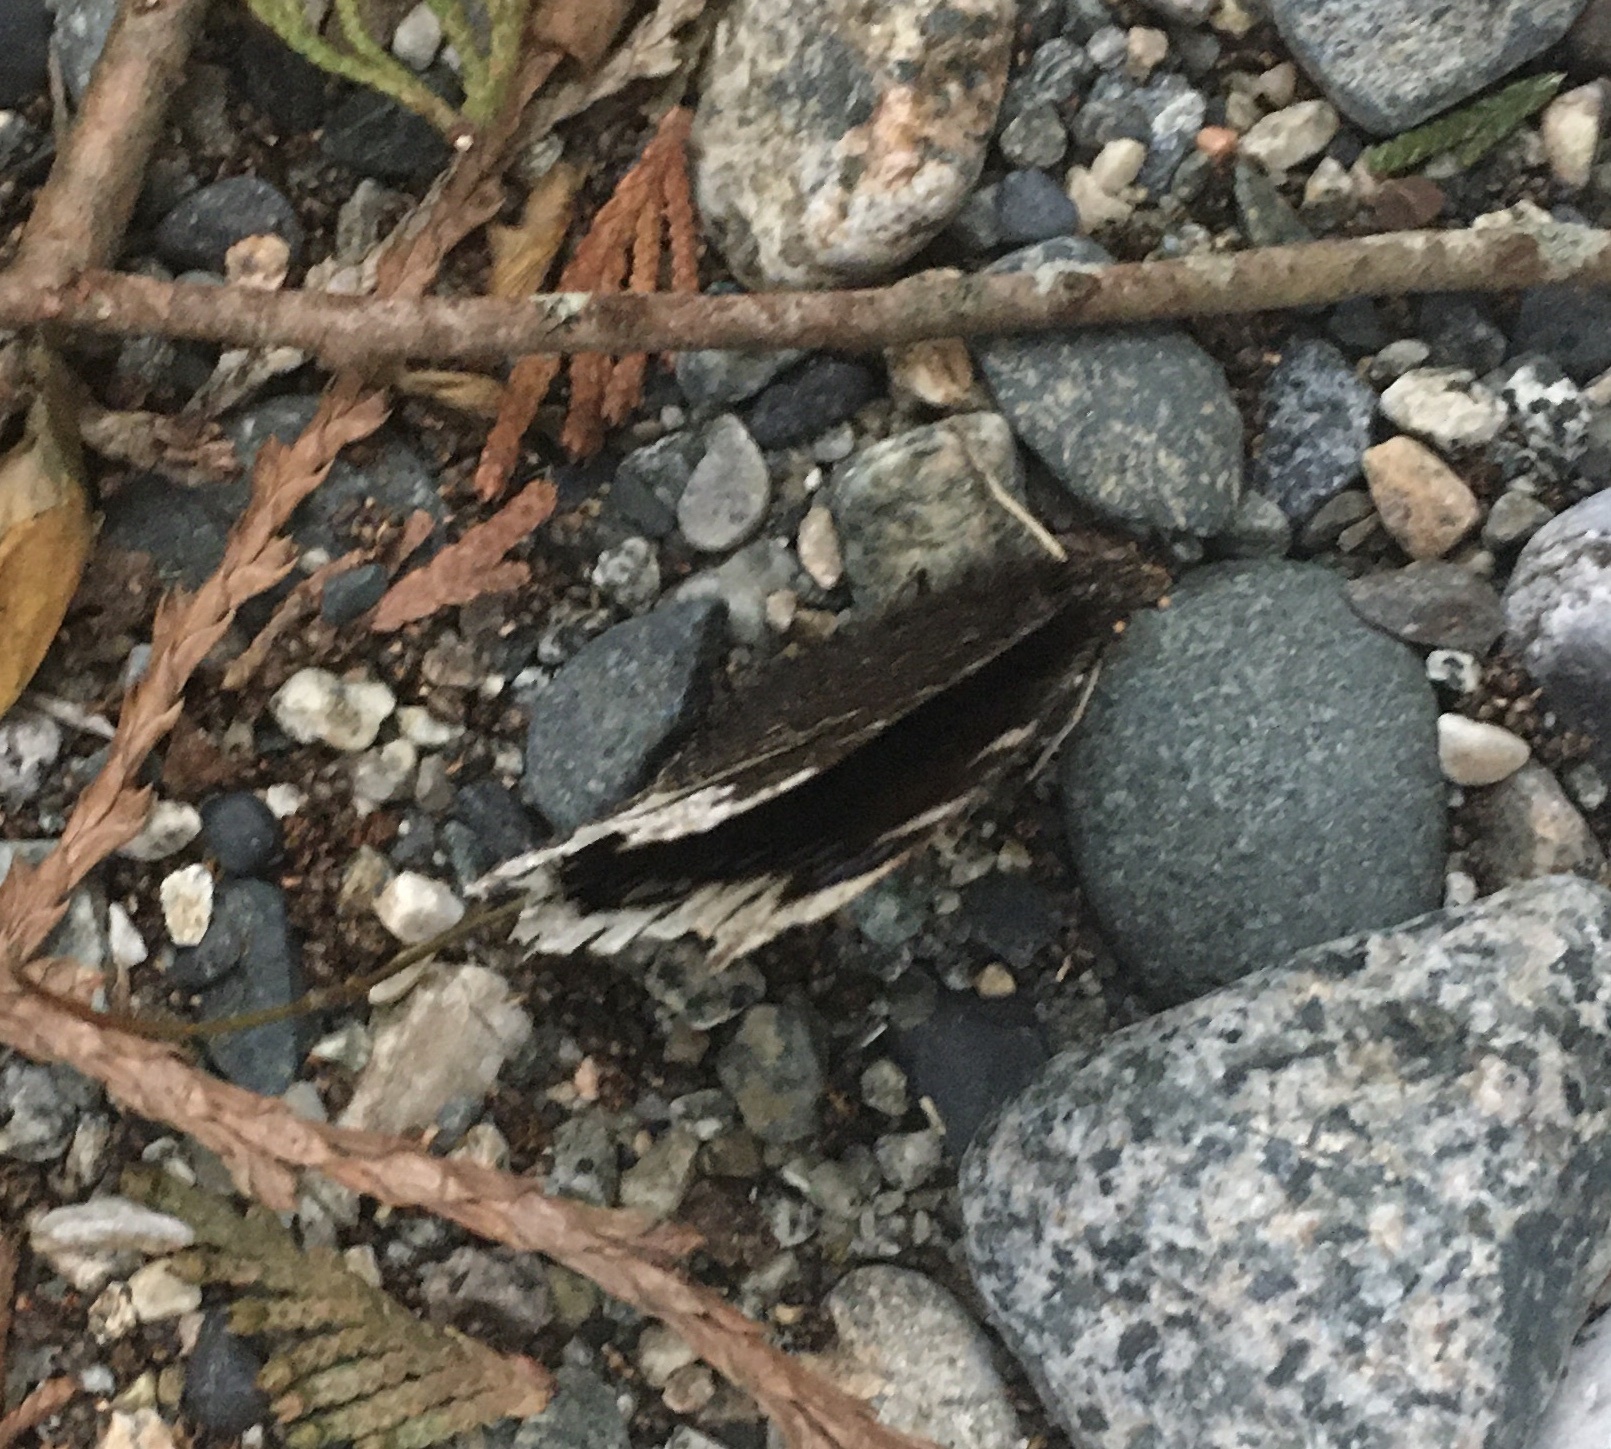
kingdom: Animalia
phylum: Arthropoda
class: Insecta
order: Lepidoptera
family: Nymphalidae
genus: Nymphalis
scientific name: Nymphalis antiopa
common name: Camberwell beauty
